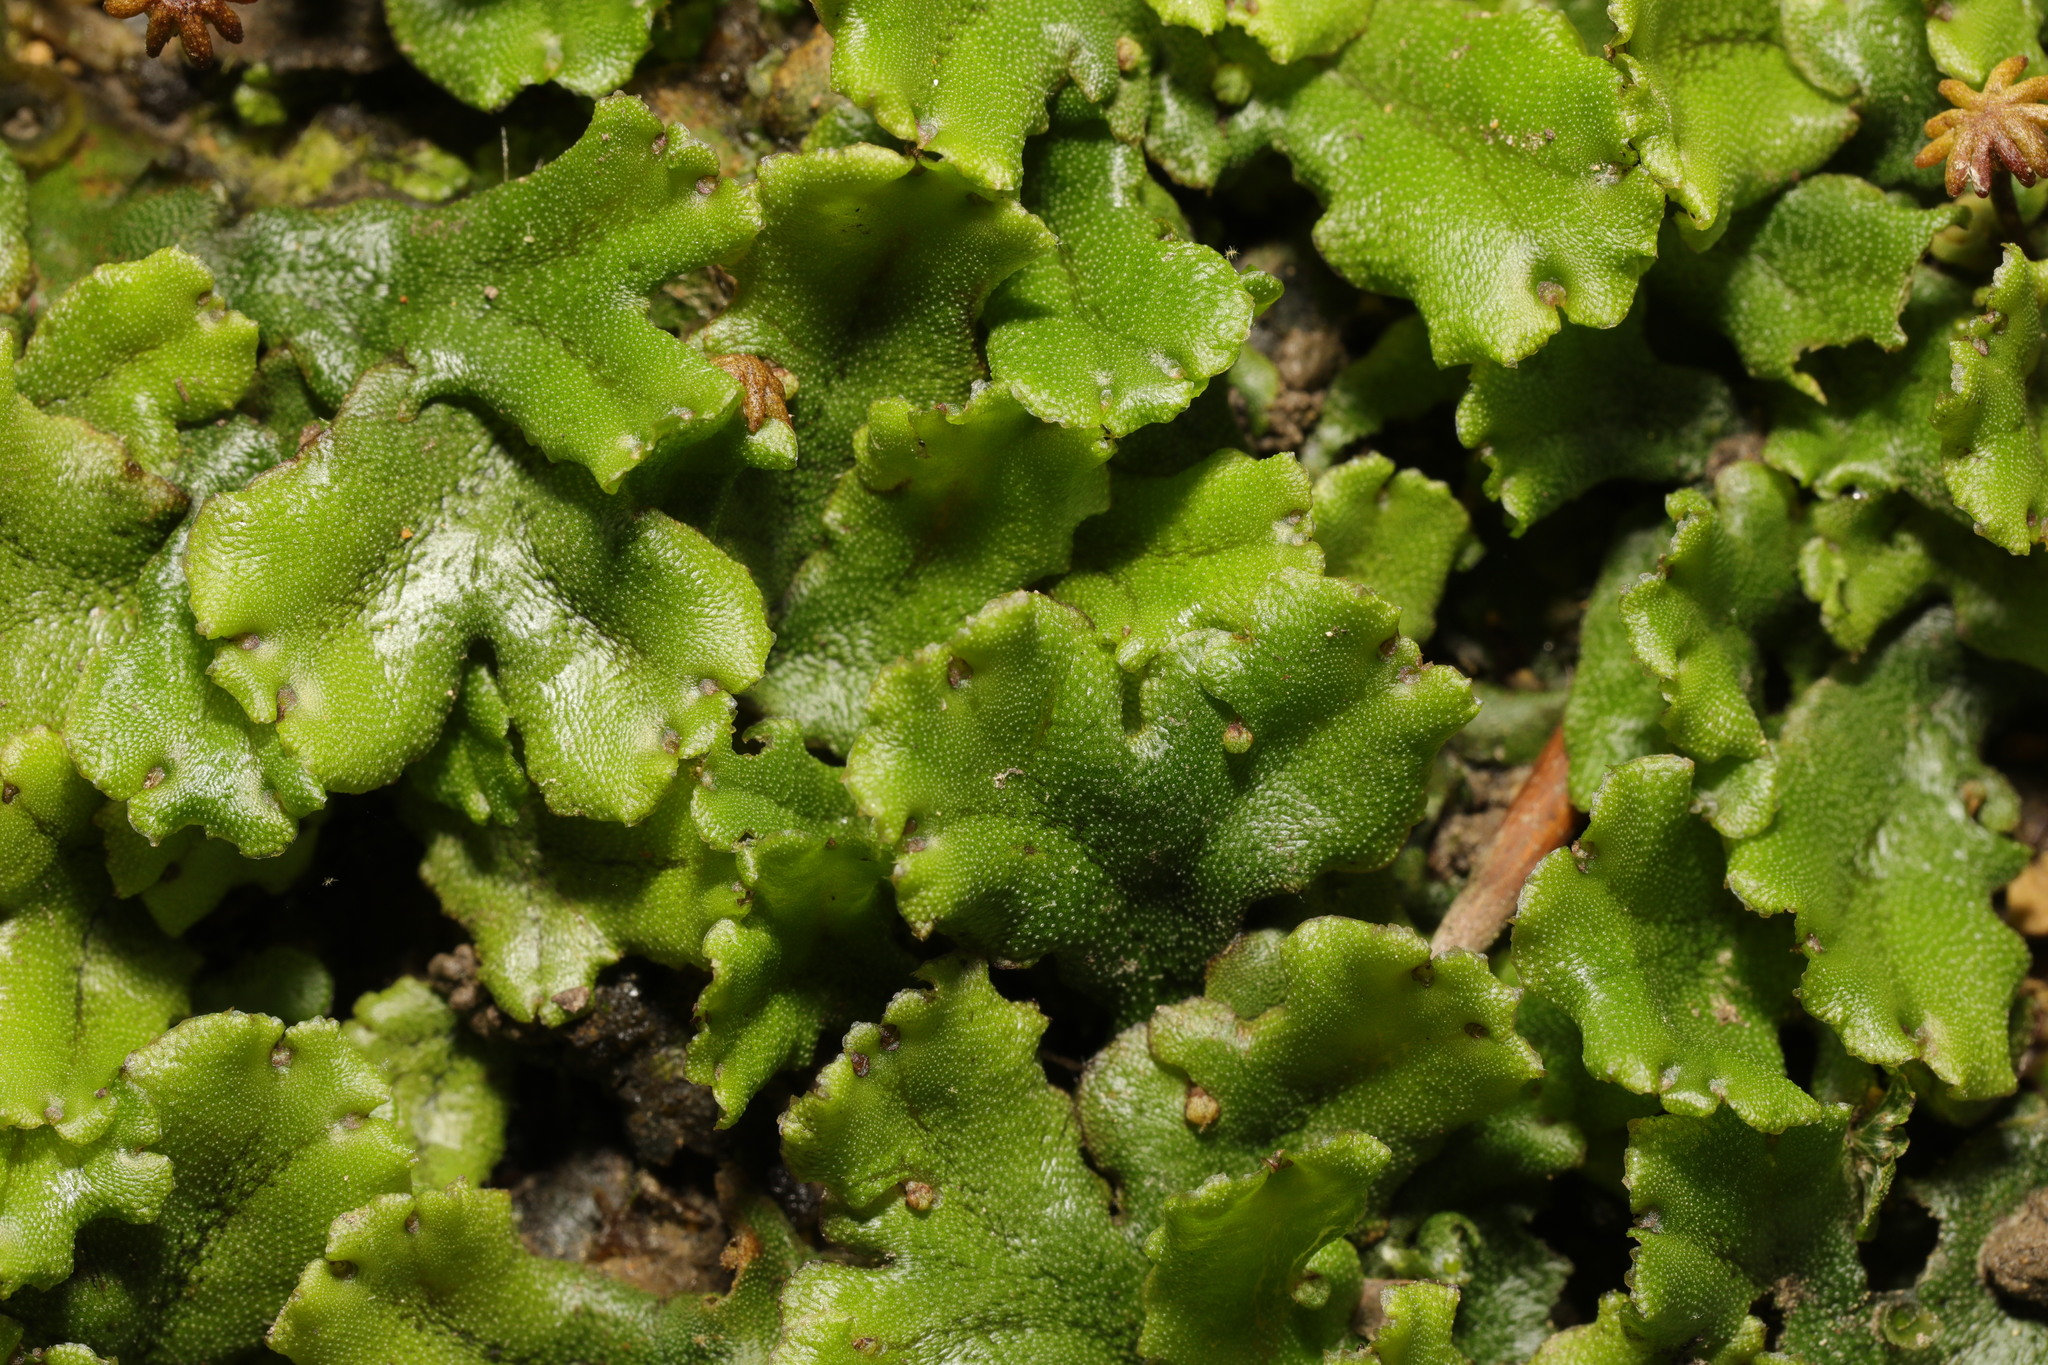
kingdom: Plantae
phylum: Marchantiophyta
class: Marchantiopsida
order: Marchantiales
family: Marchantiaceae
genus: Marchantia
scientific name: Marchantia polymorpha
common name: Common liverwort
